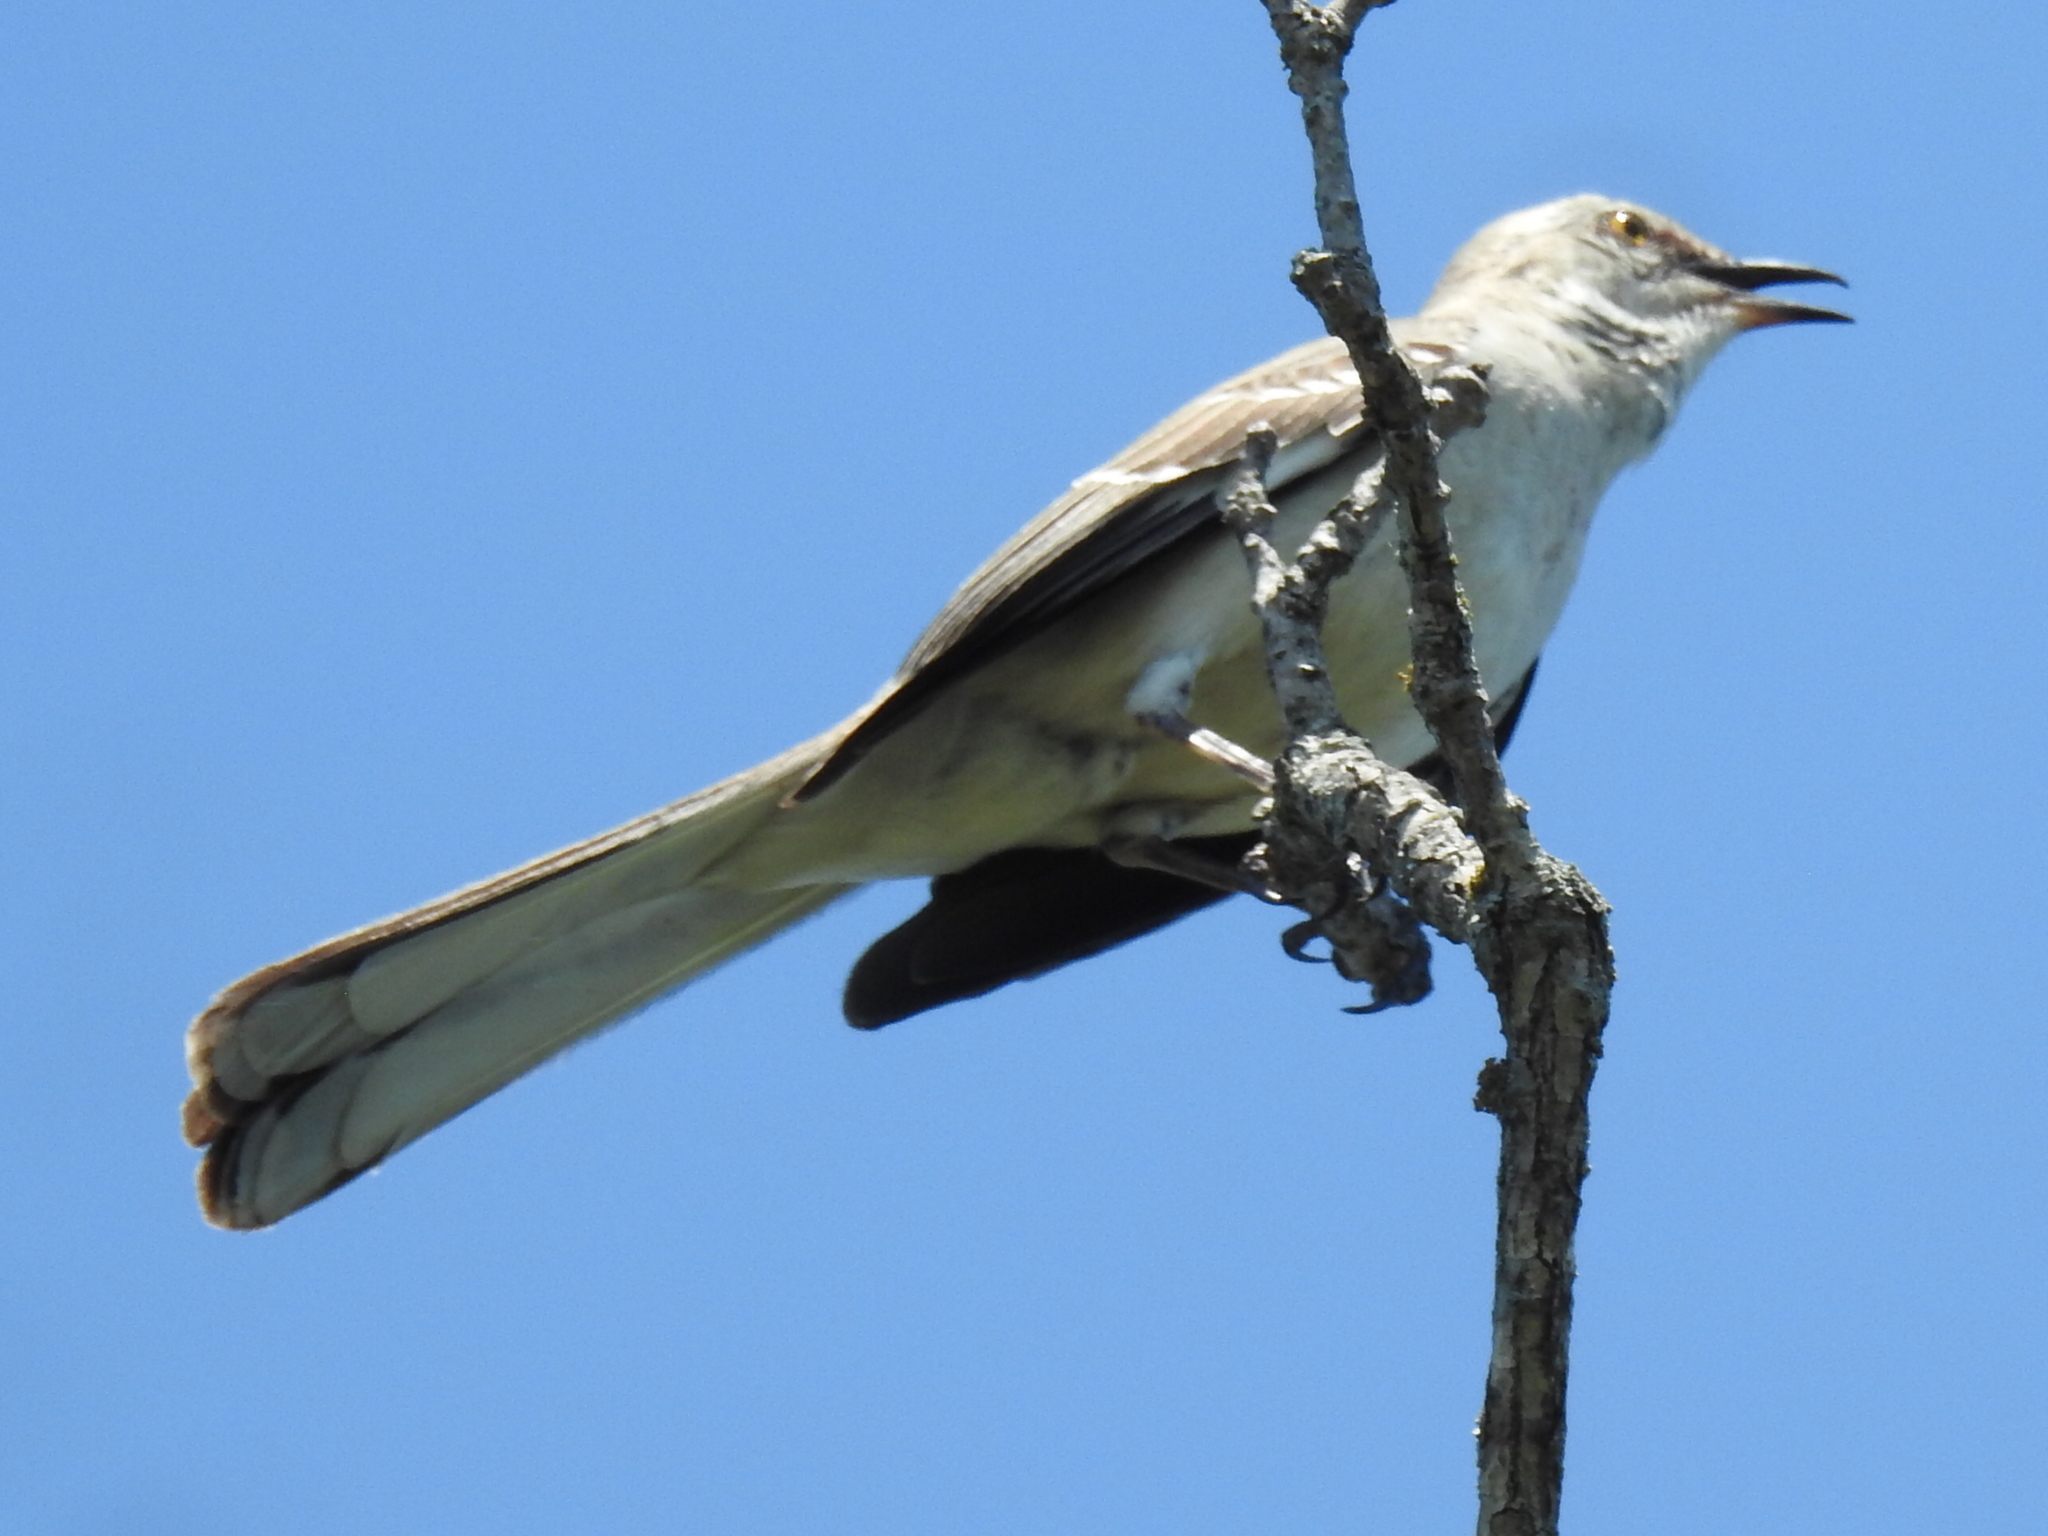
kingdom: Animalia
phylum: Chordata
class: Aves
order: Passeriformes
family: Mimidae
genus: Mimus
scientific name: Mimus polyglottos
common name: Northern mockingbird
